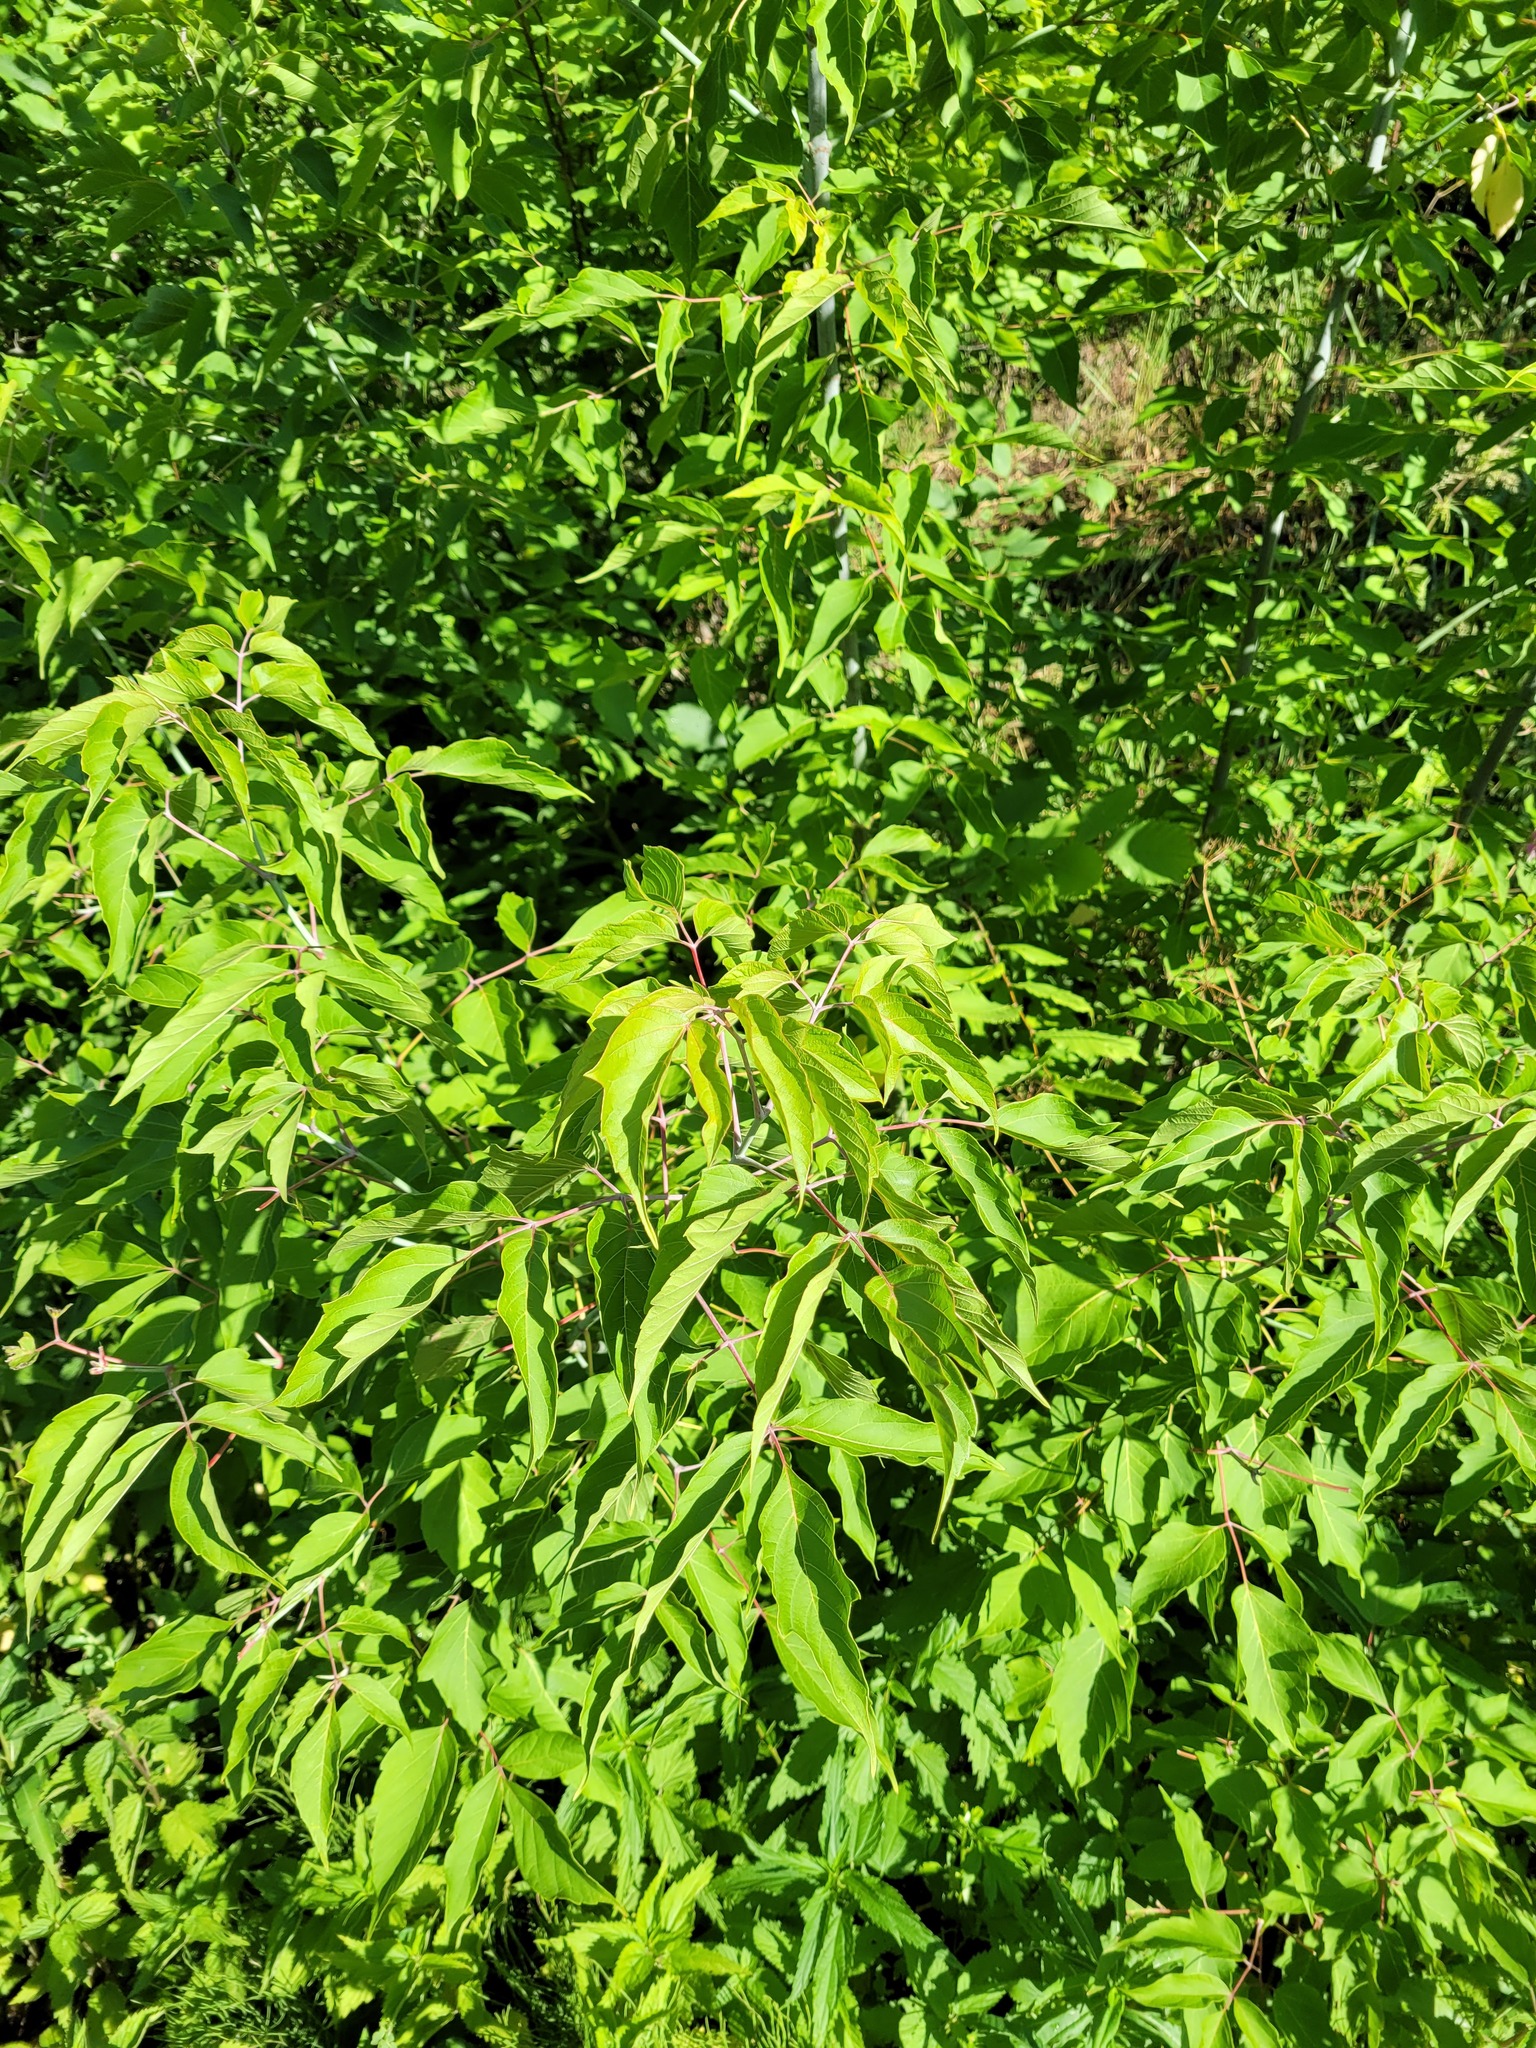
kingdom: Plantae
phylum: Tracheophyta
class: Magnoliopsida
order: Sapindales
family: Sapindaceae
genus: Acer
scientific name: Acer negundo
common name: Ashleaf maple
